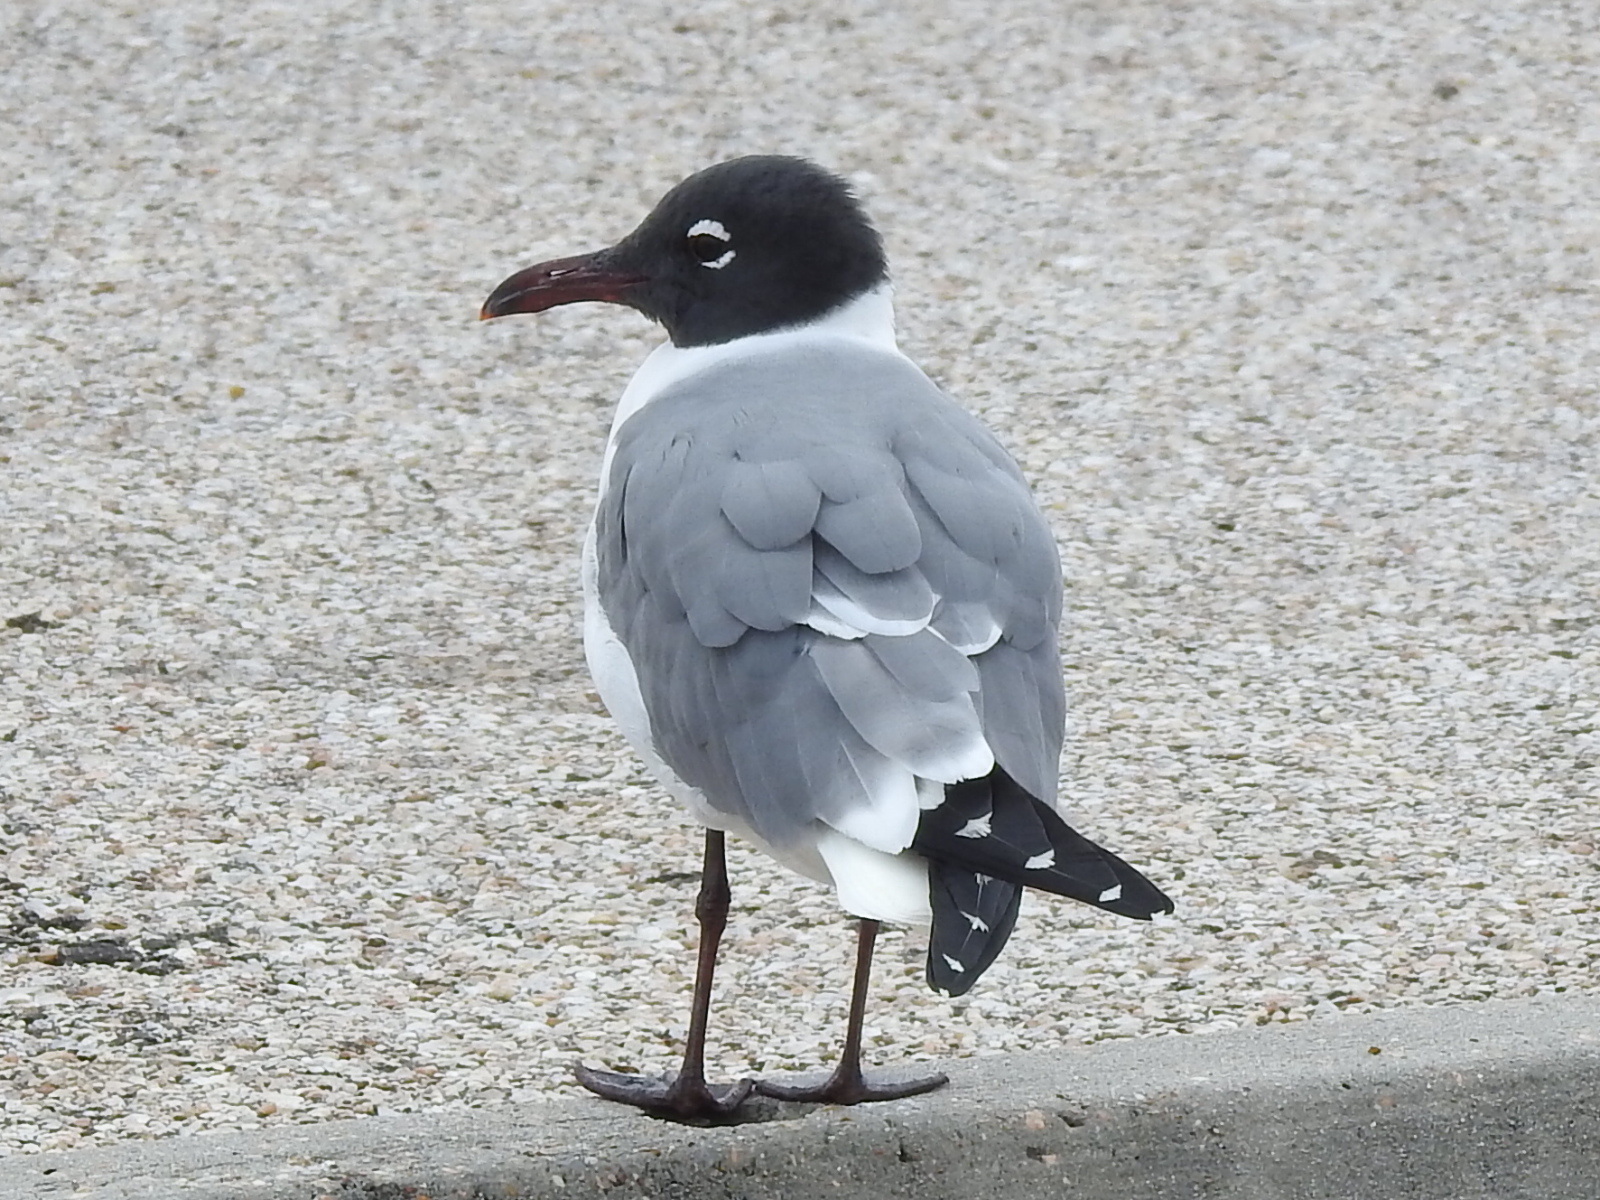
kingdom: Animalia
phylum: Chordata
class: Aves
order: Charadriiformes
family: Laridae
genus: Leucophaeus
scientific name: Leucophaeus atricilla
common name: Laughing gull
